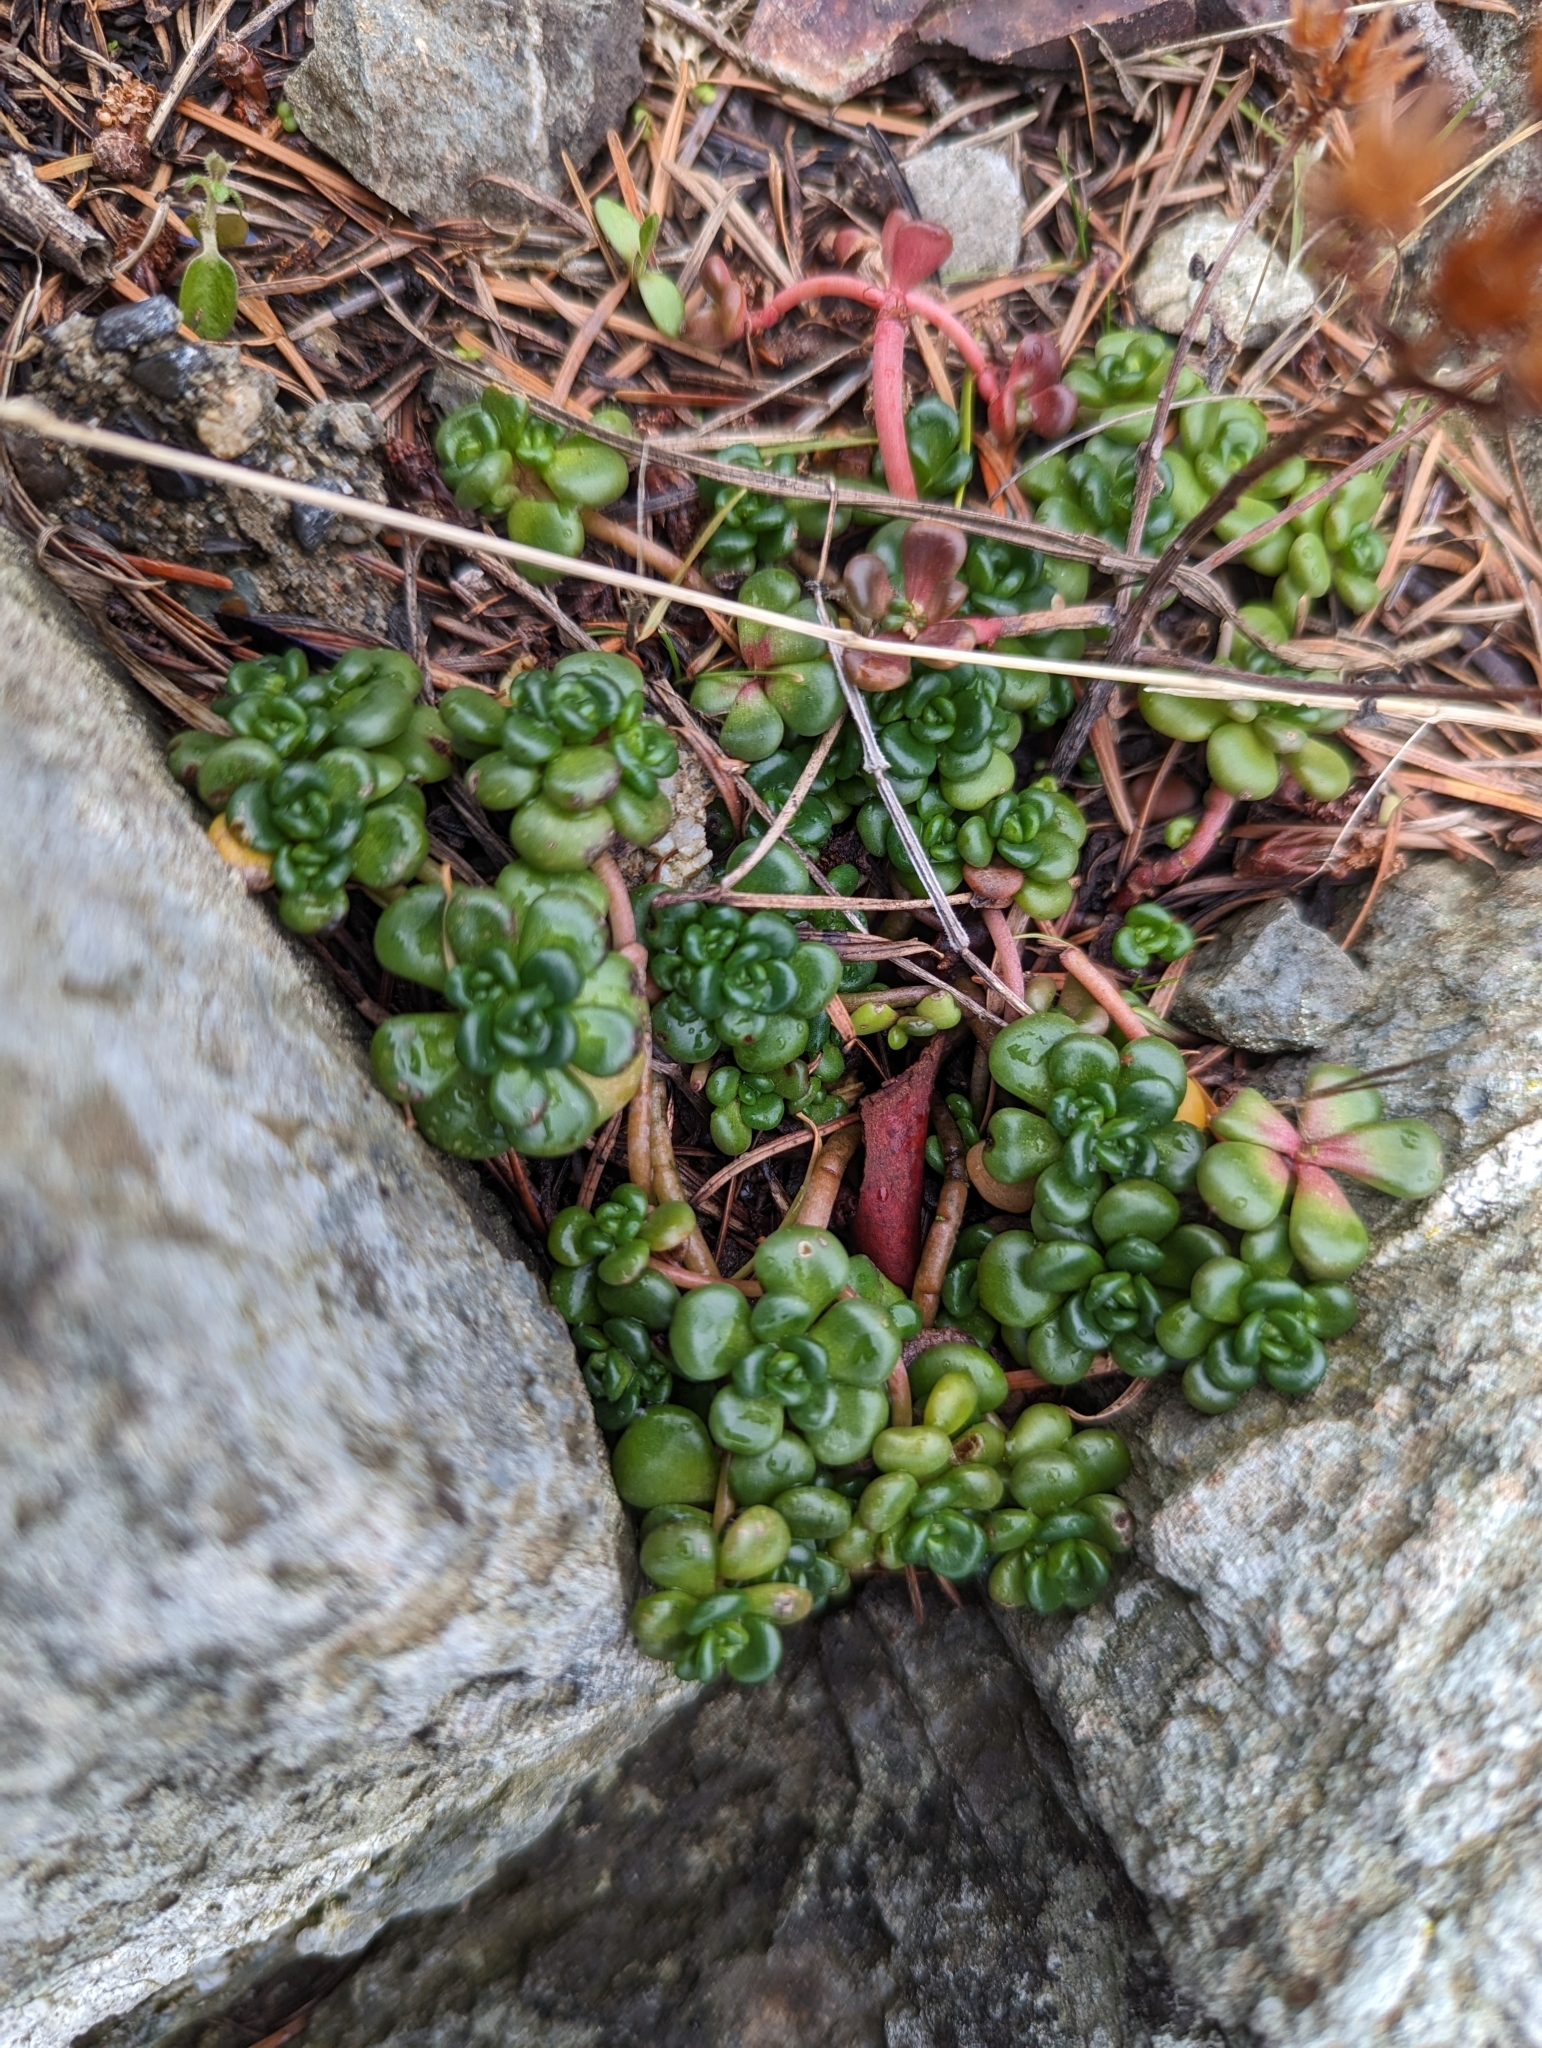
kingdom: Plantae
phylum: Tracheophyta
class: Magnoliopsida
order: Saxifragales
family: Crassulaceae
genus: Sedum
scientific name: Sedum oreganum
